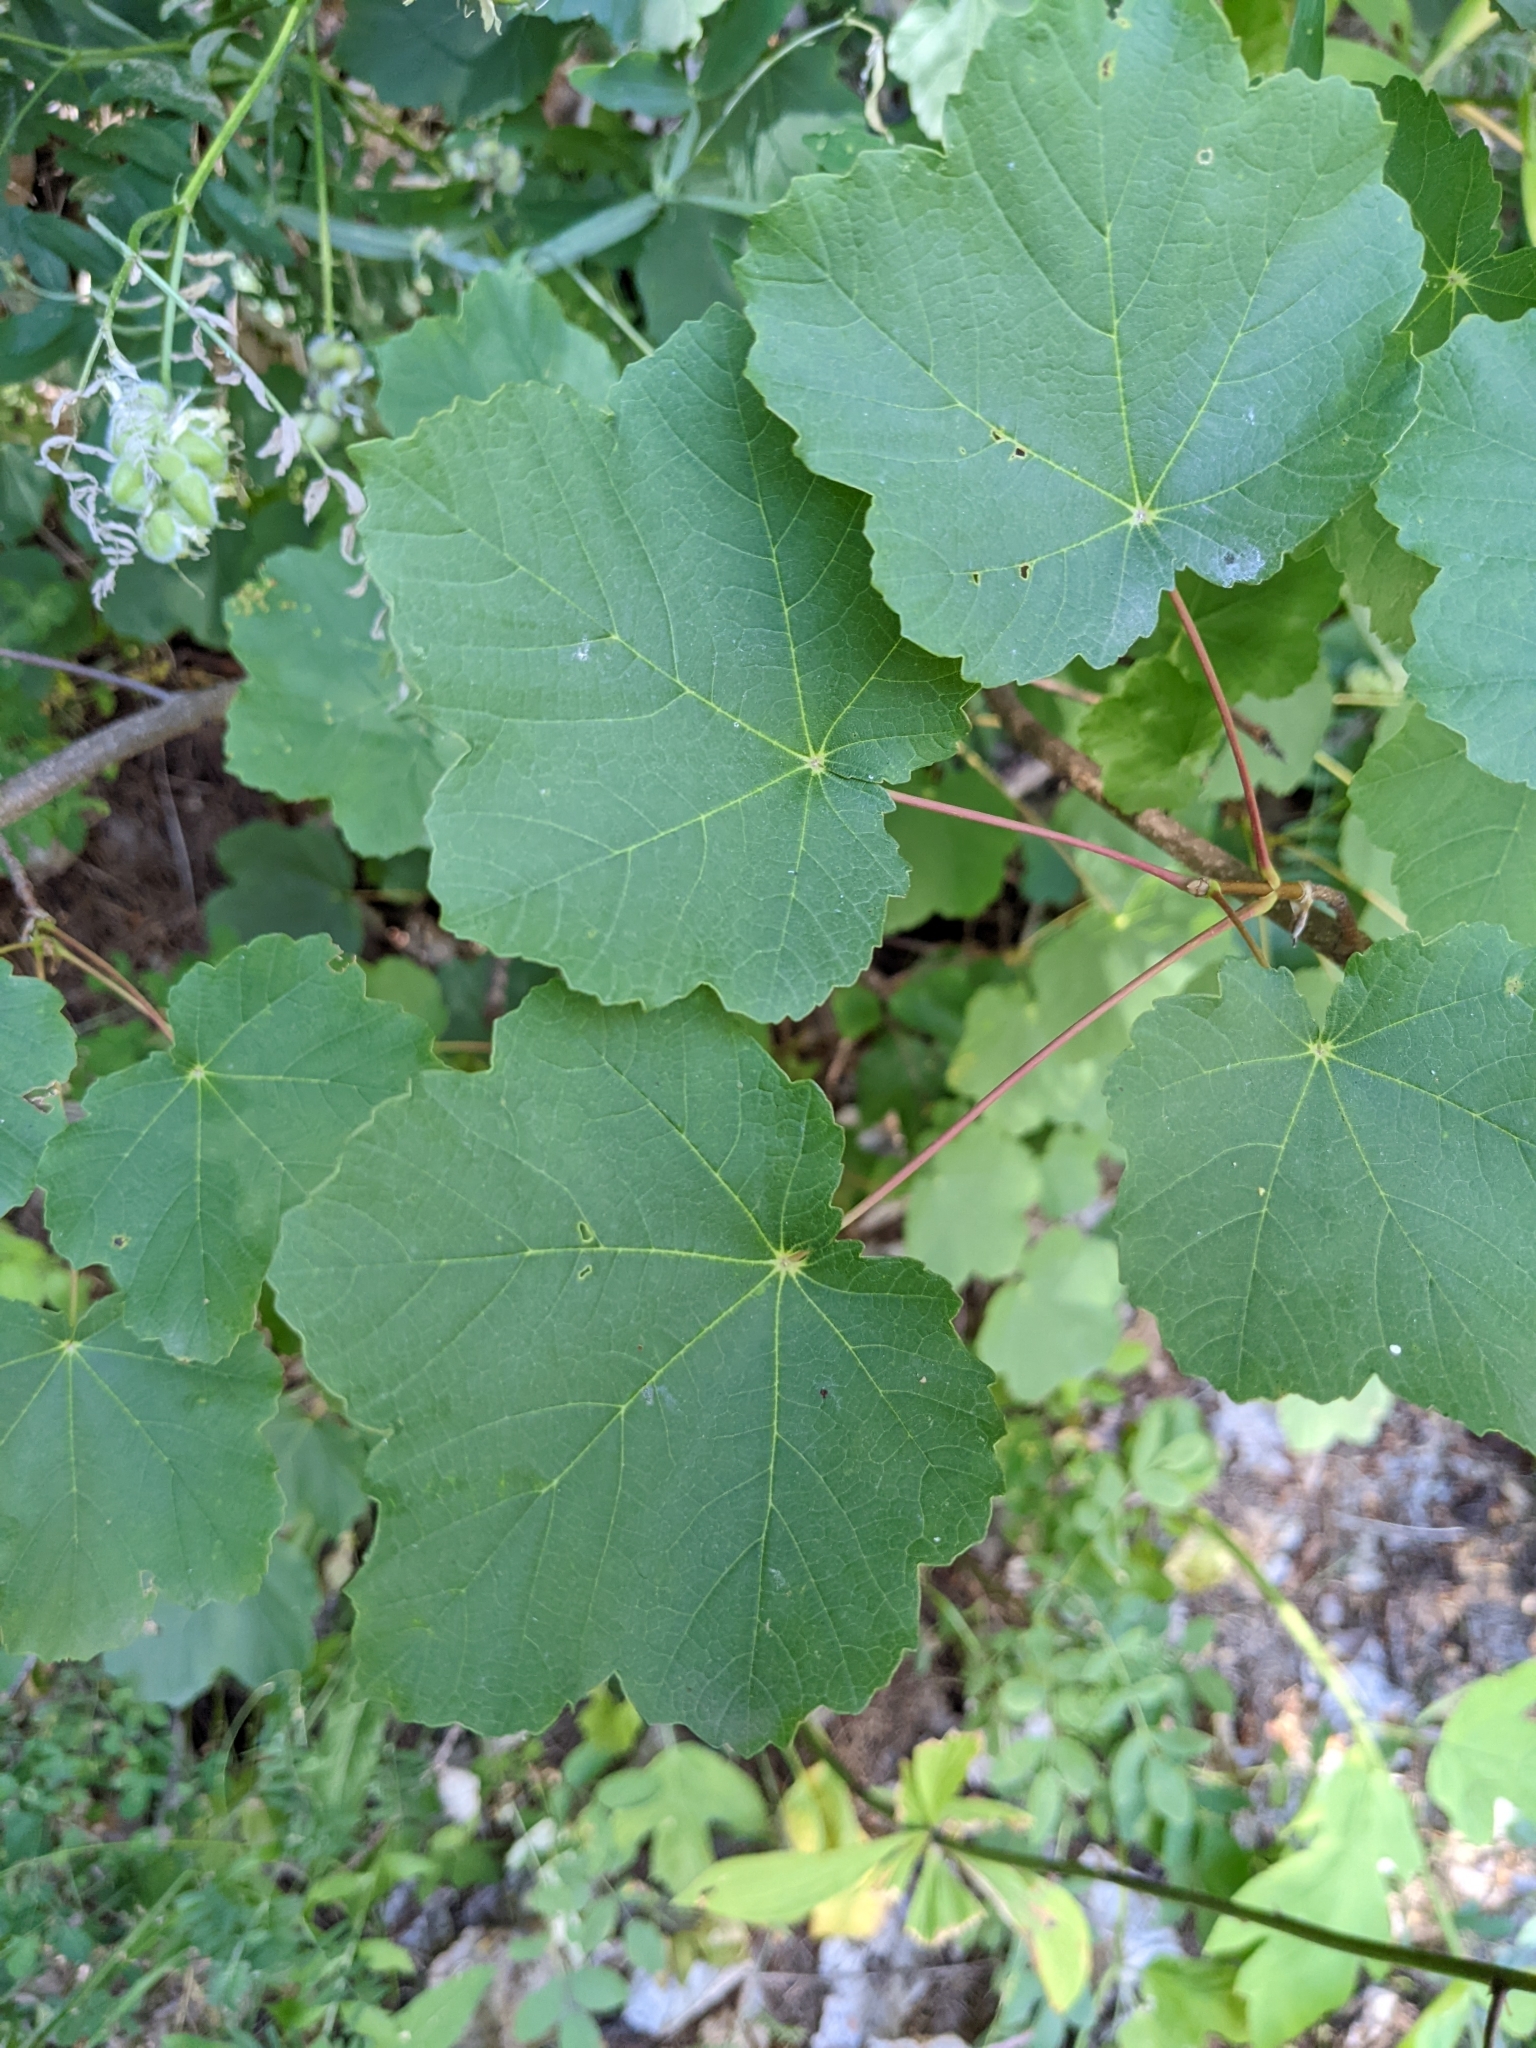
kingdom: Plantae
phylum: Tracheophyta
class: Magnoliopsida
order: Sapindales
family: Sapindaceae
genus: Acer
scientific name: Acer opalus
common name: Italian maple
